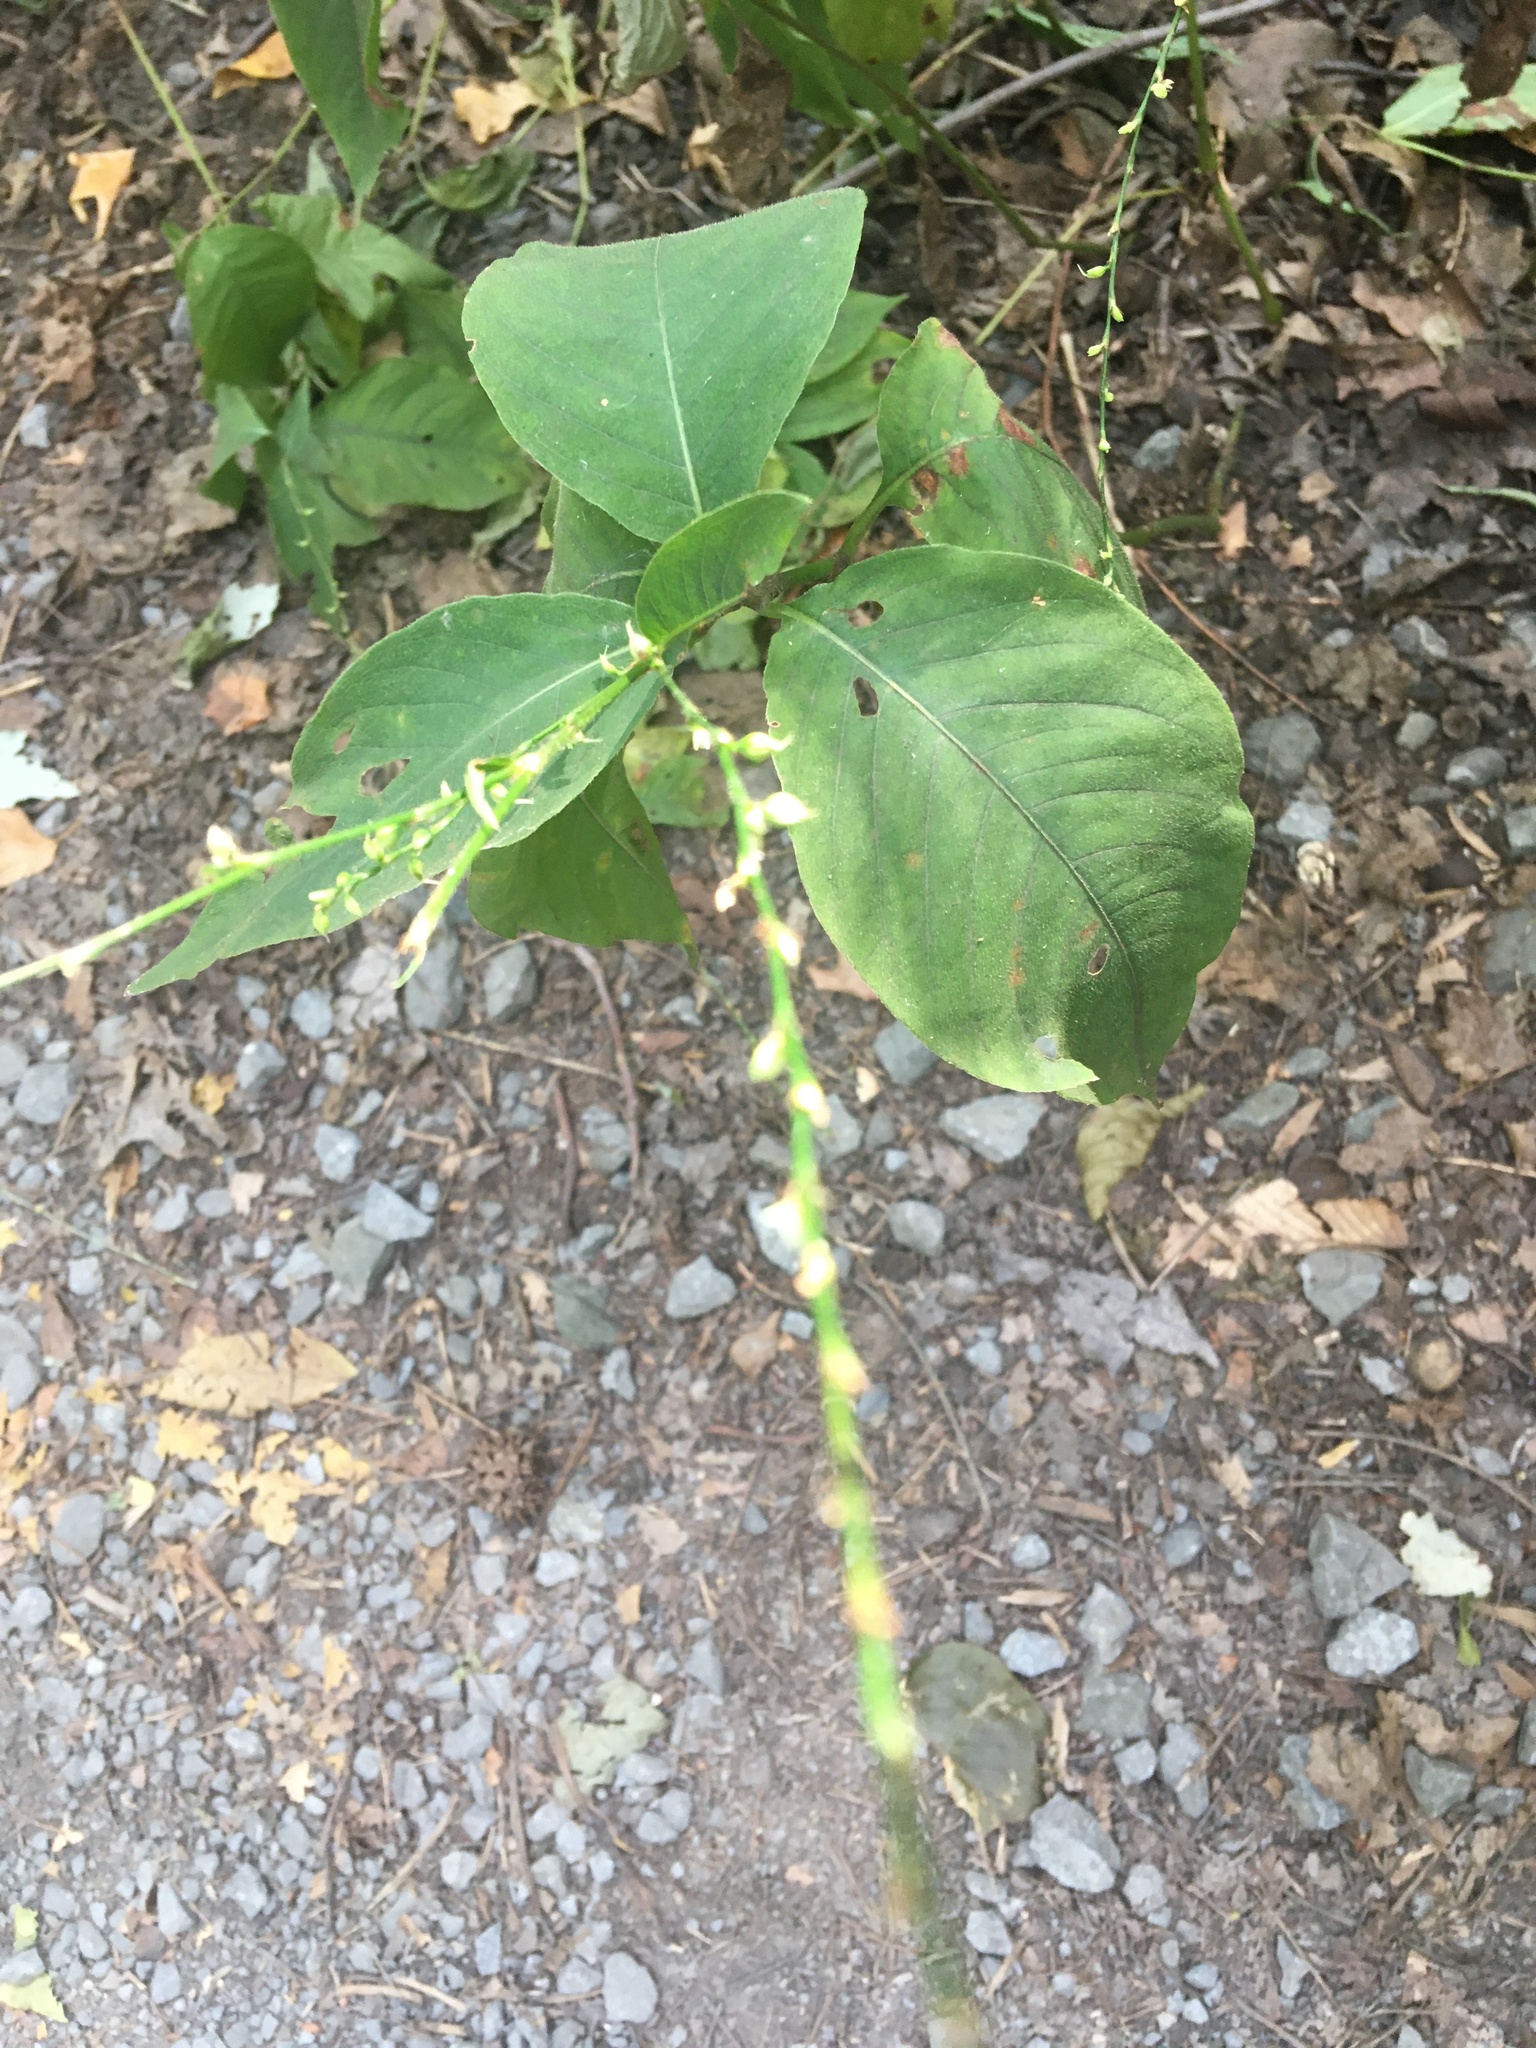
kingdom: Plantae
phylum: Tracheophyta
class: Magnoliopsida
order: Caryophyllales
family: Polygonaceae
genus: Persicaria
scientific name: Persicaria virginiana
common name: Jumpseed
